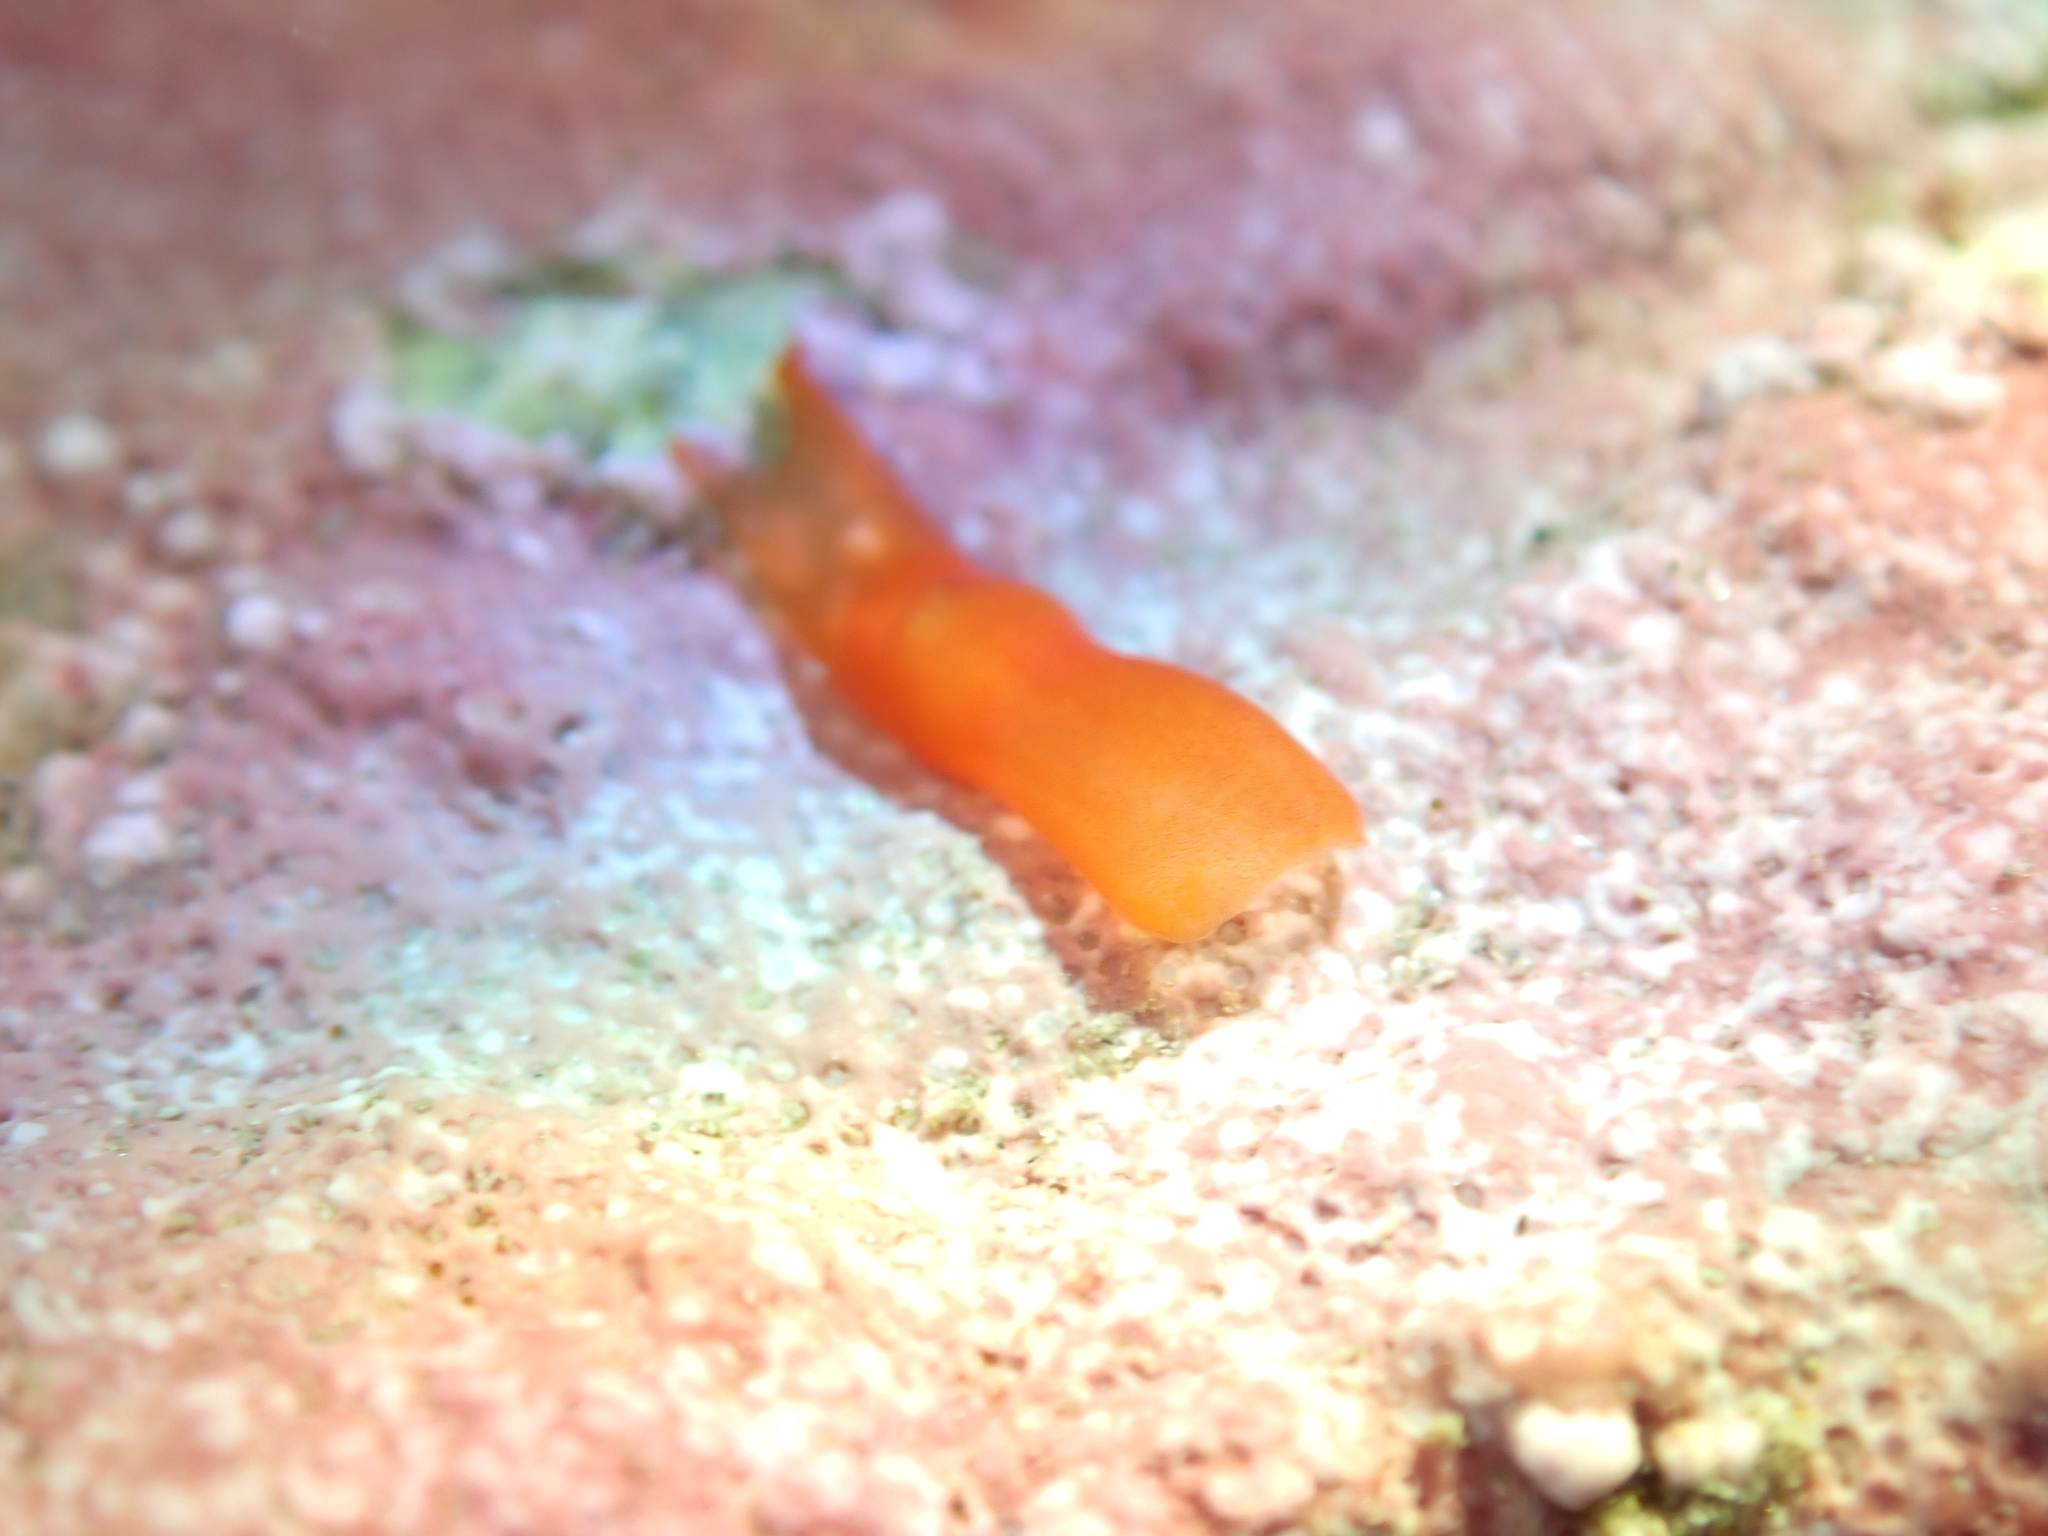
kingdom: Animalia
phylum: Xenacoelomorpha
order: Acoela
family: Convolutidae
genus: Polychoerus
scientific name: Polychoerus gordoni
